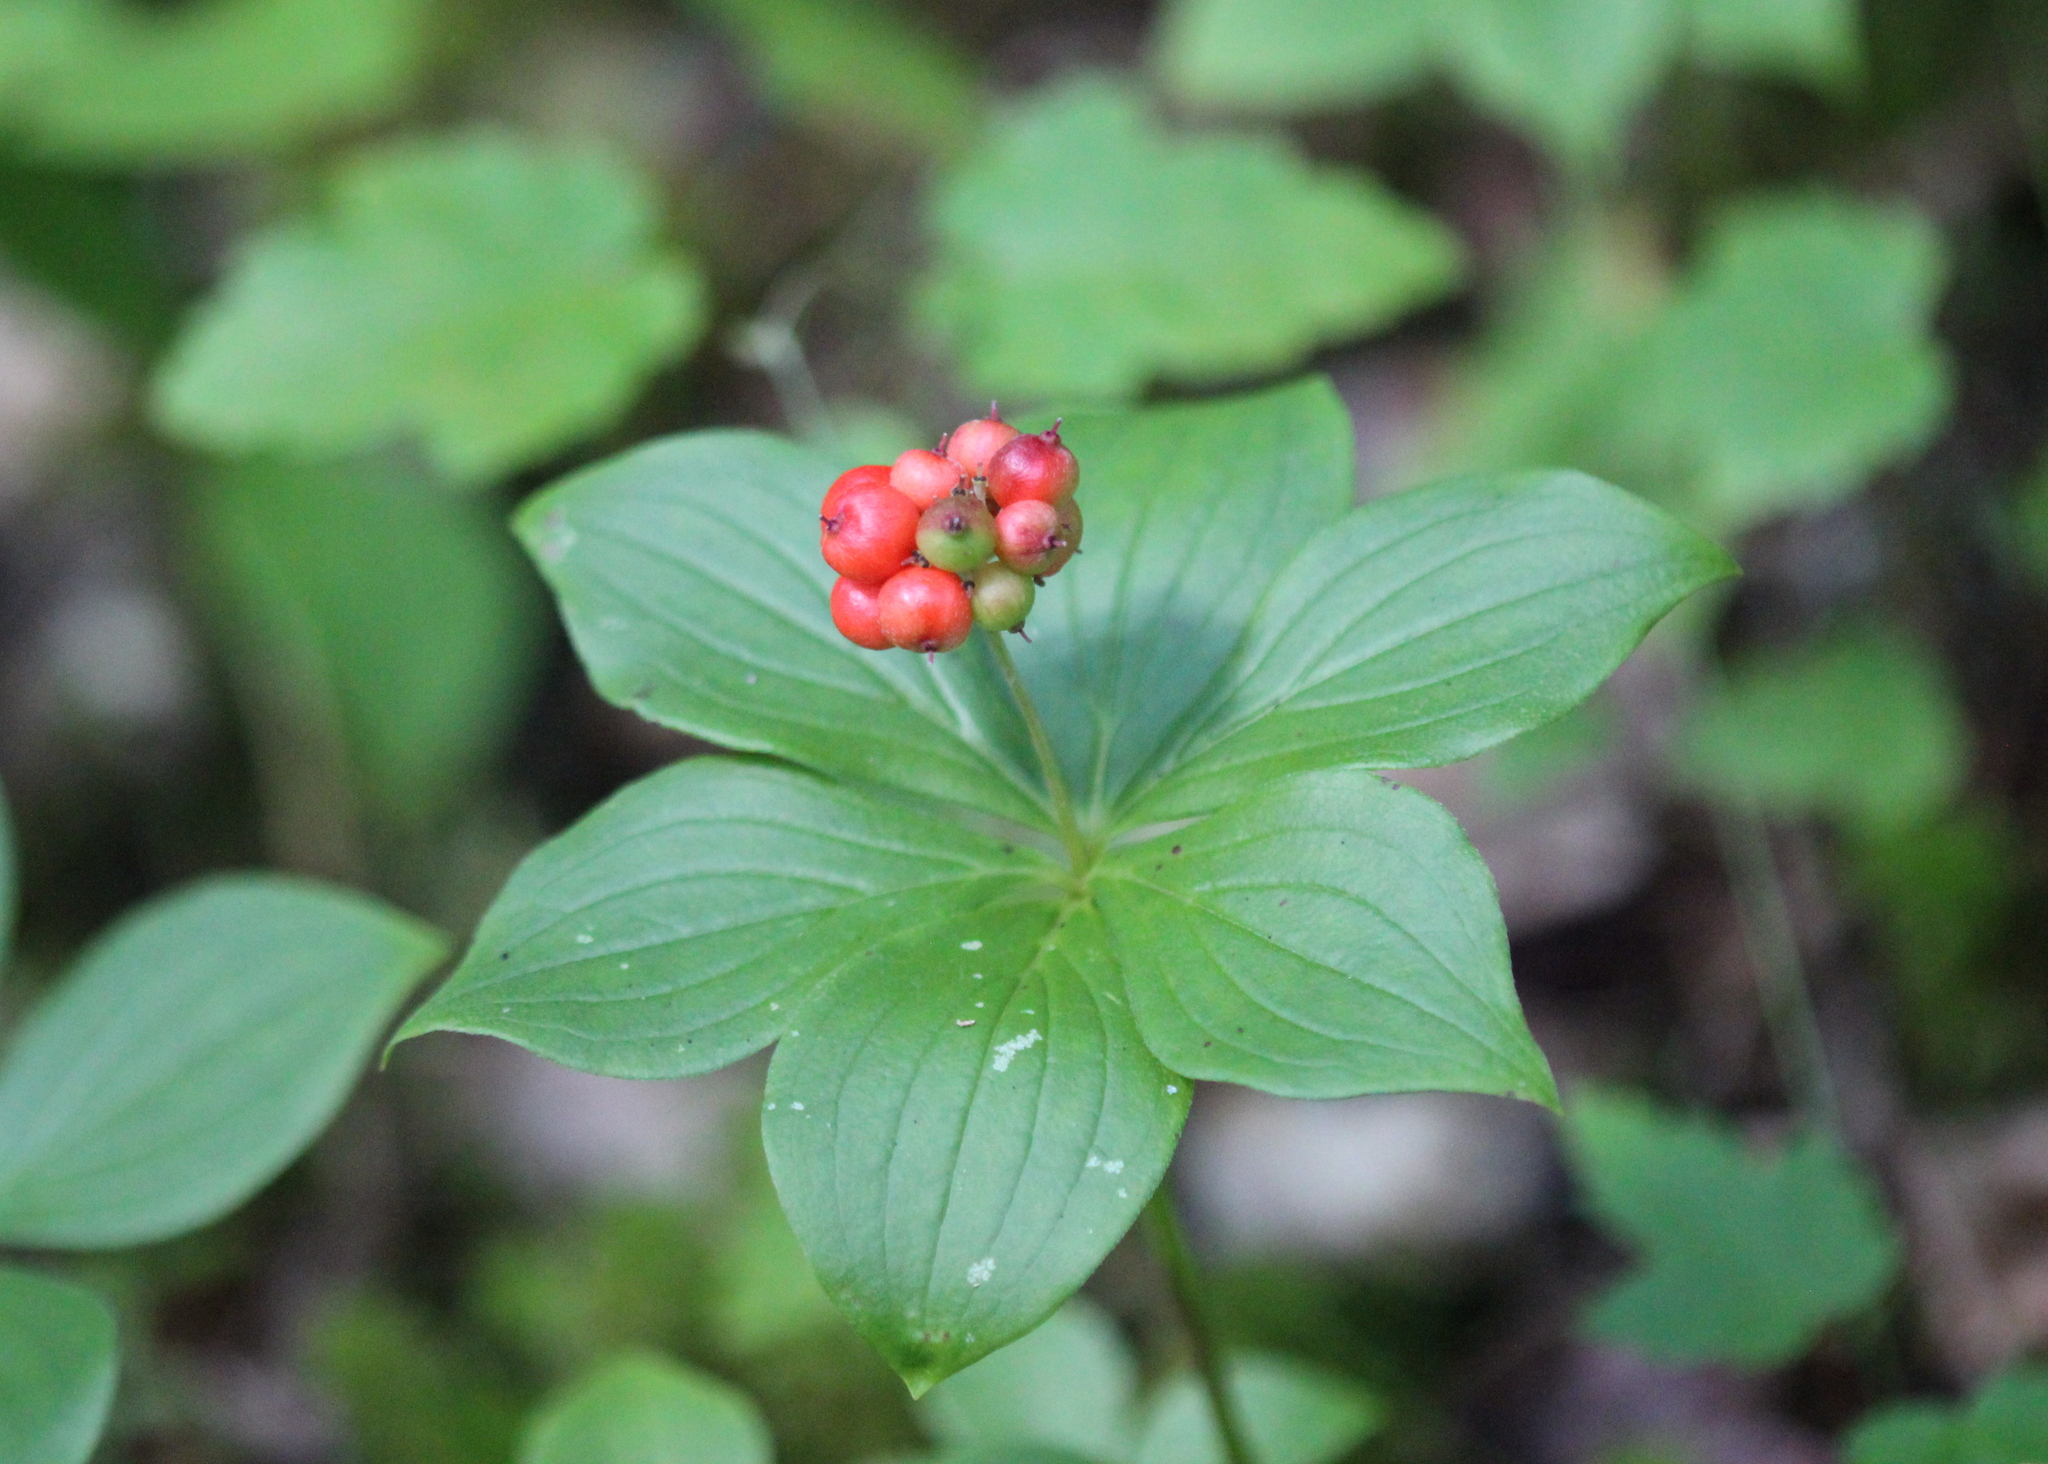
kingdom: Plantae
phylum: Tracheophyta
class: Magnoliopsida
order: Cornales
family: Cornaceae
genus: Cornus
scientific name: Cornus canadensis
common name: Creeping dogwood
